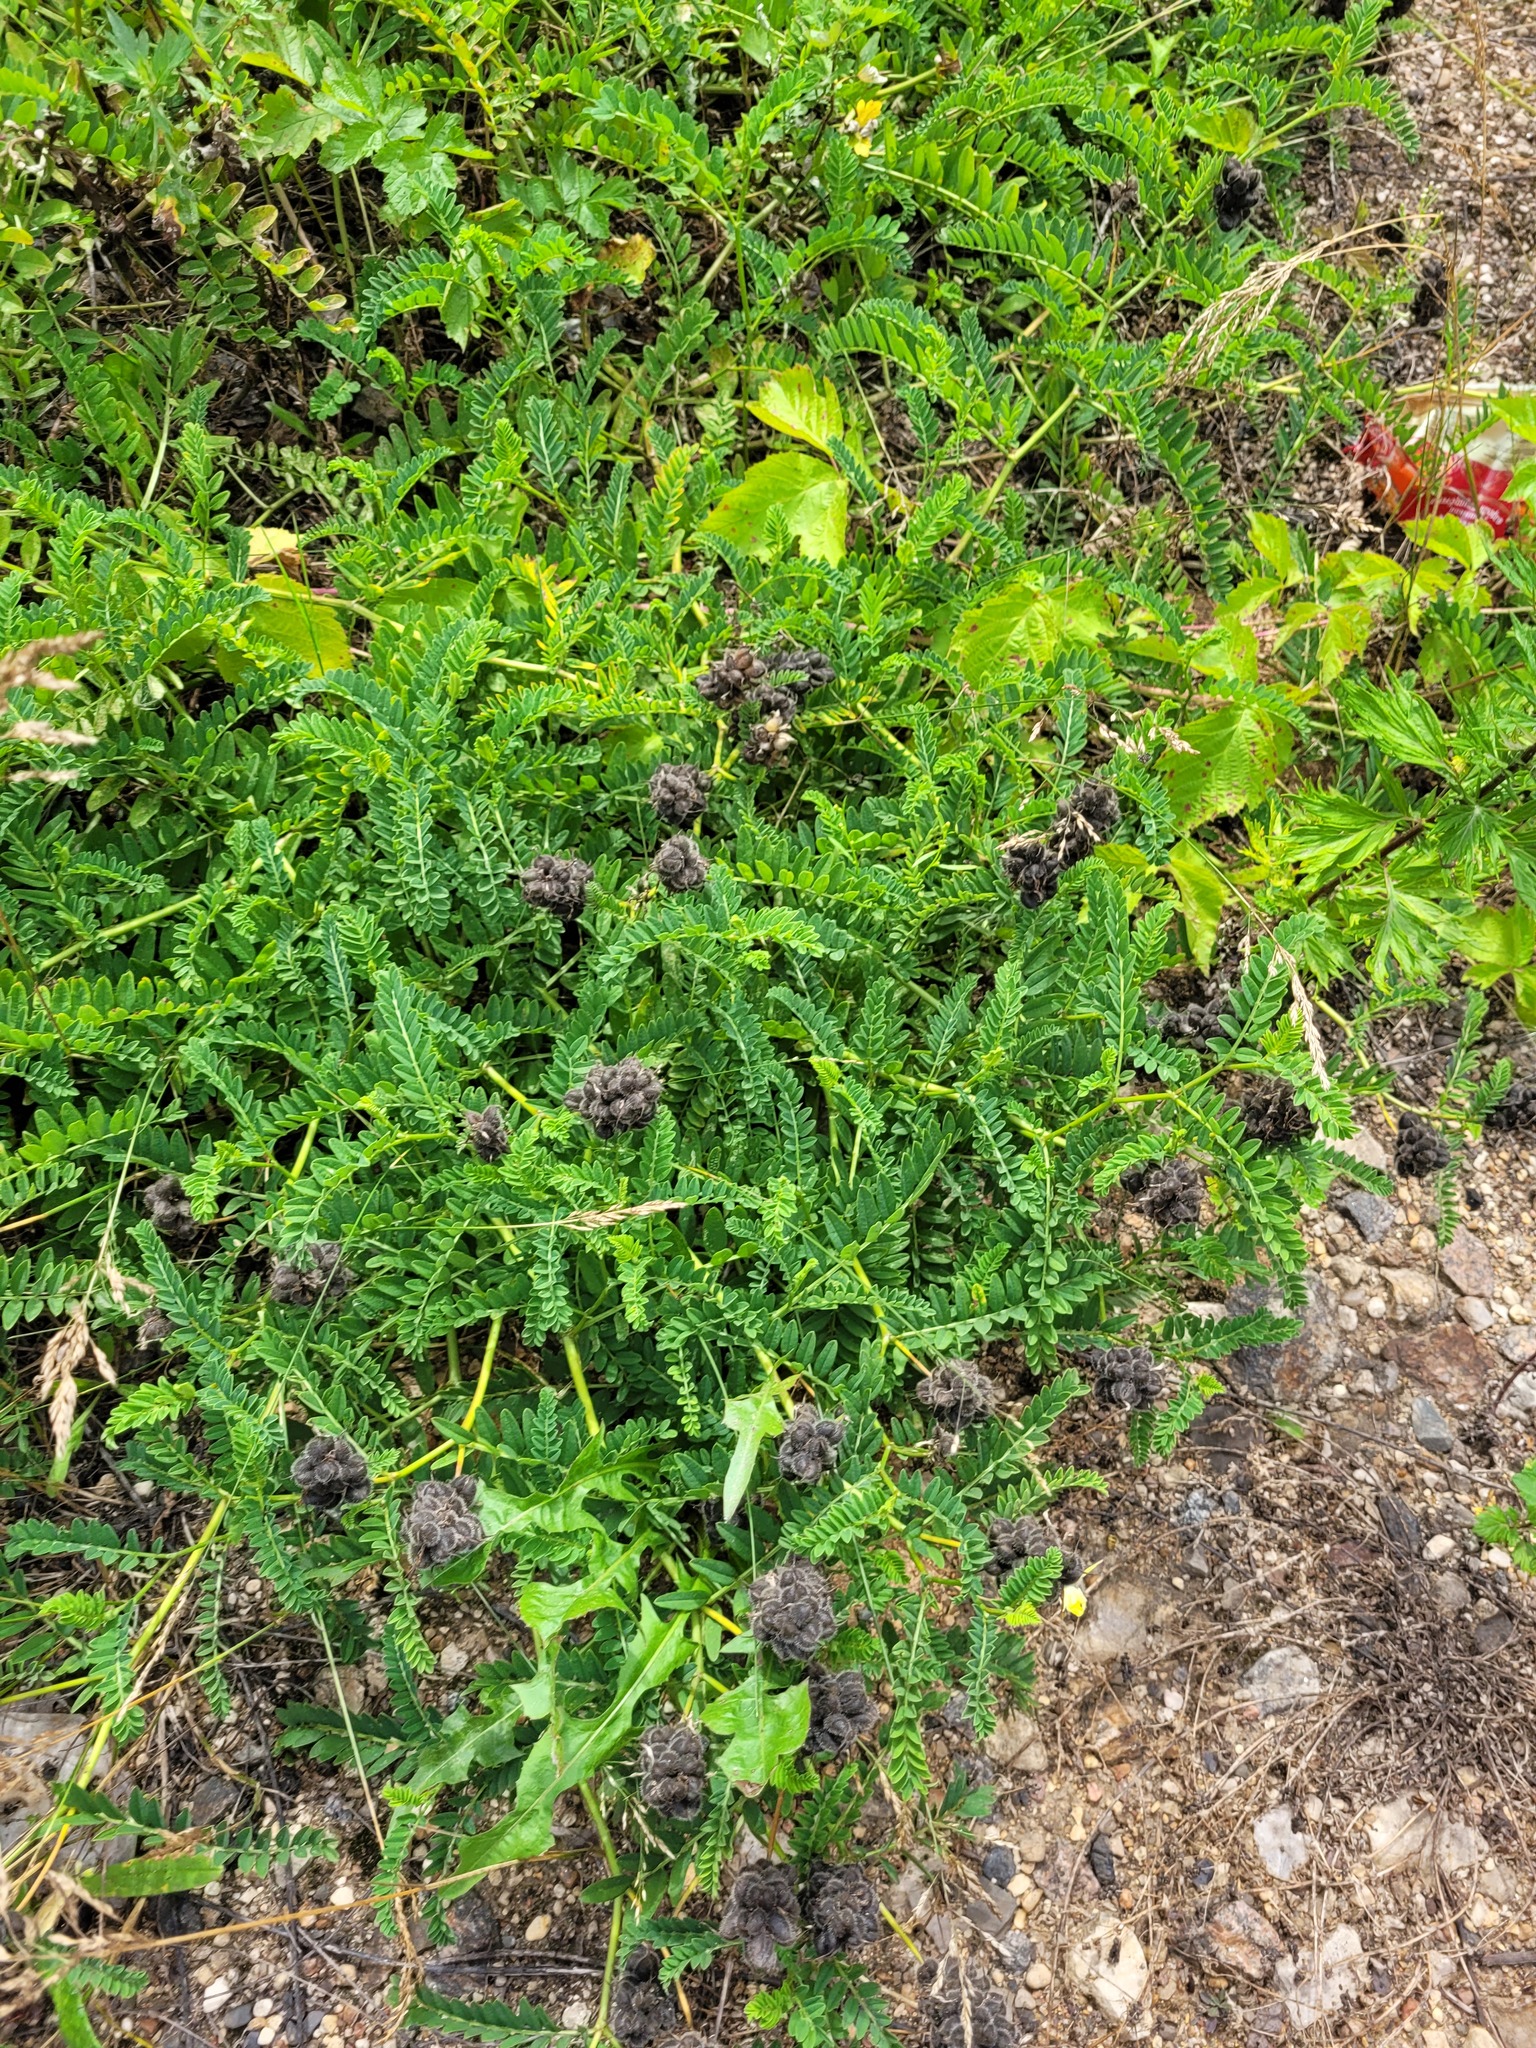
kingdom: Plantae
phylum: Tracheophyta
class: Magnoliopsida
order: Fabales
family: Fabaceae
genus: Astragalus
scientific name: Astragalus cicer
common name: Chick-pea milk-vetch
